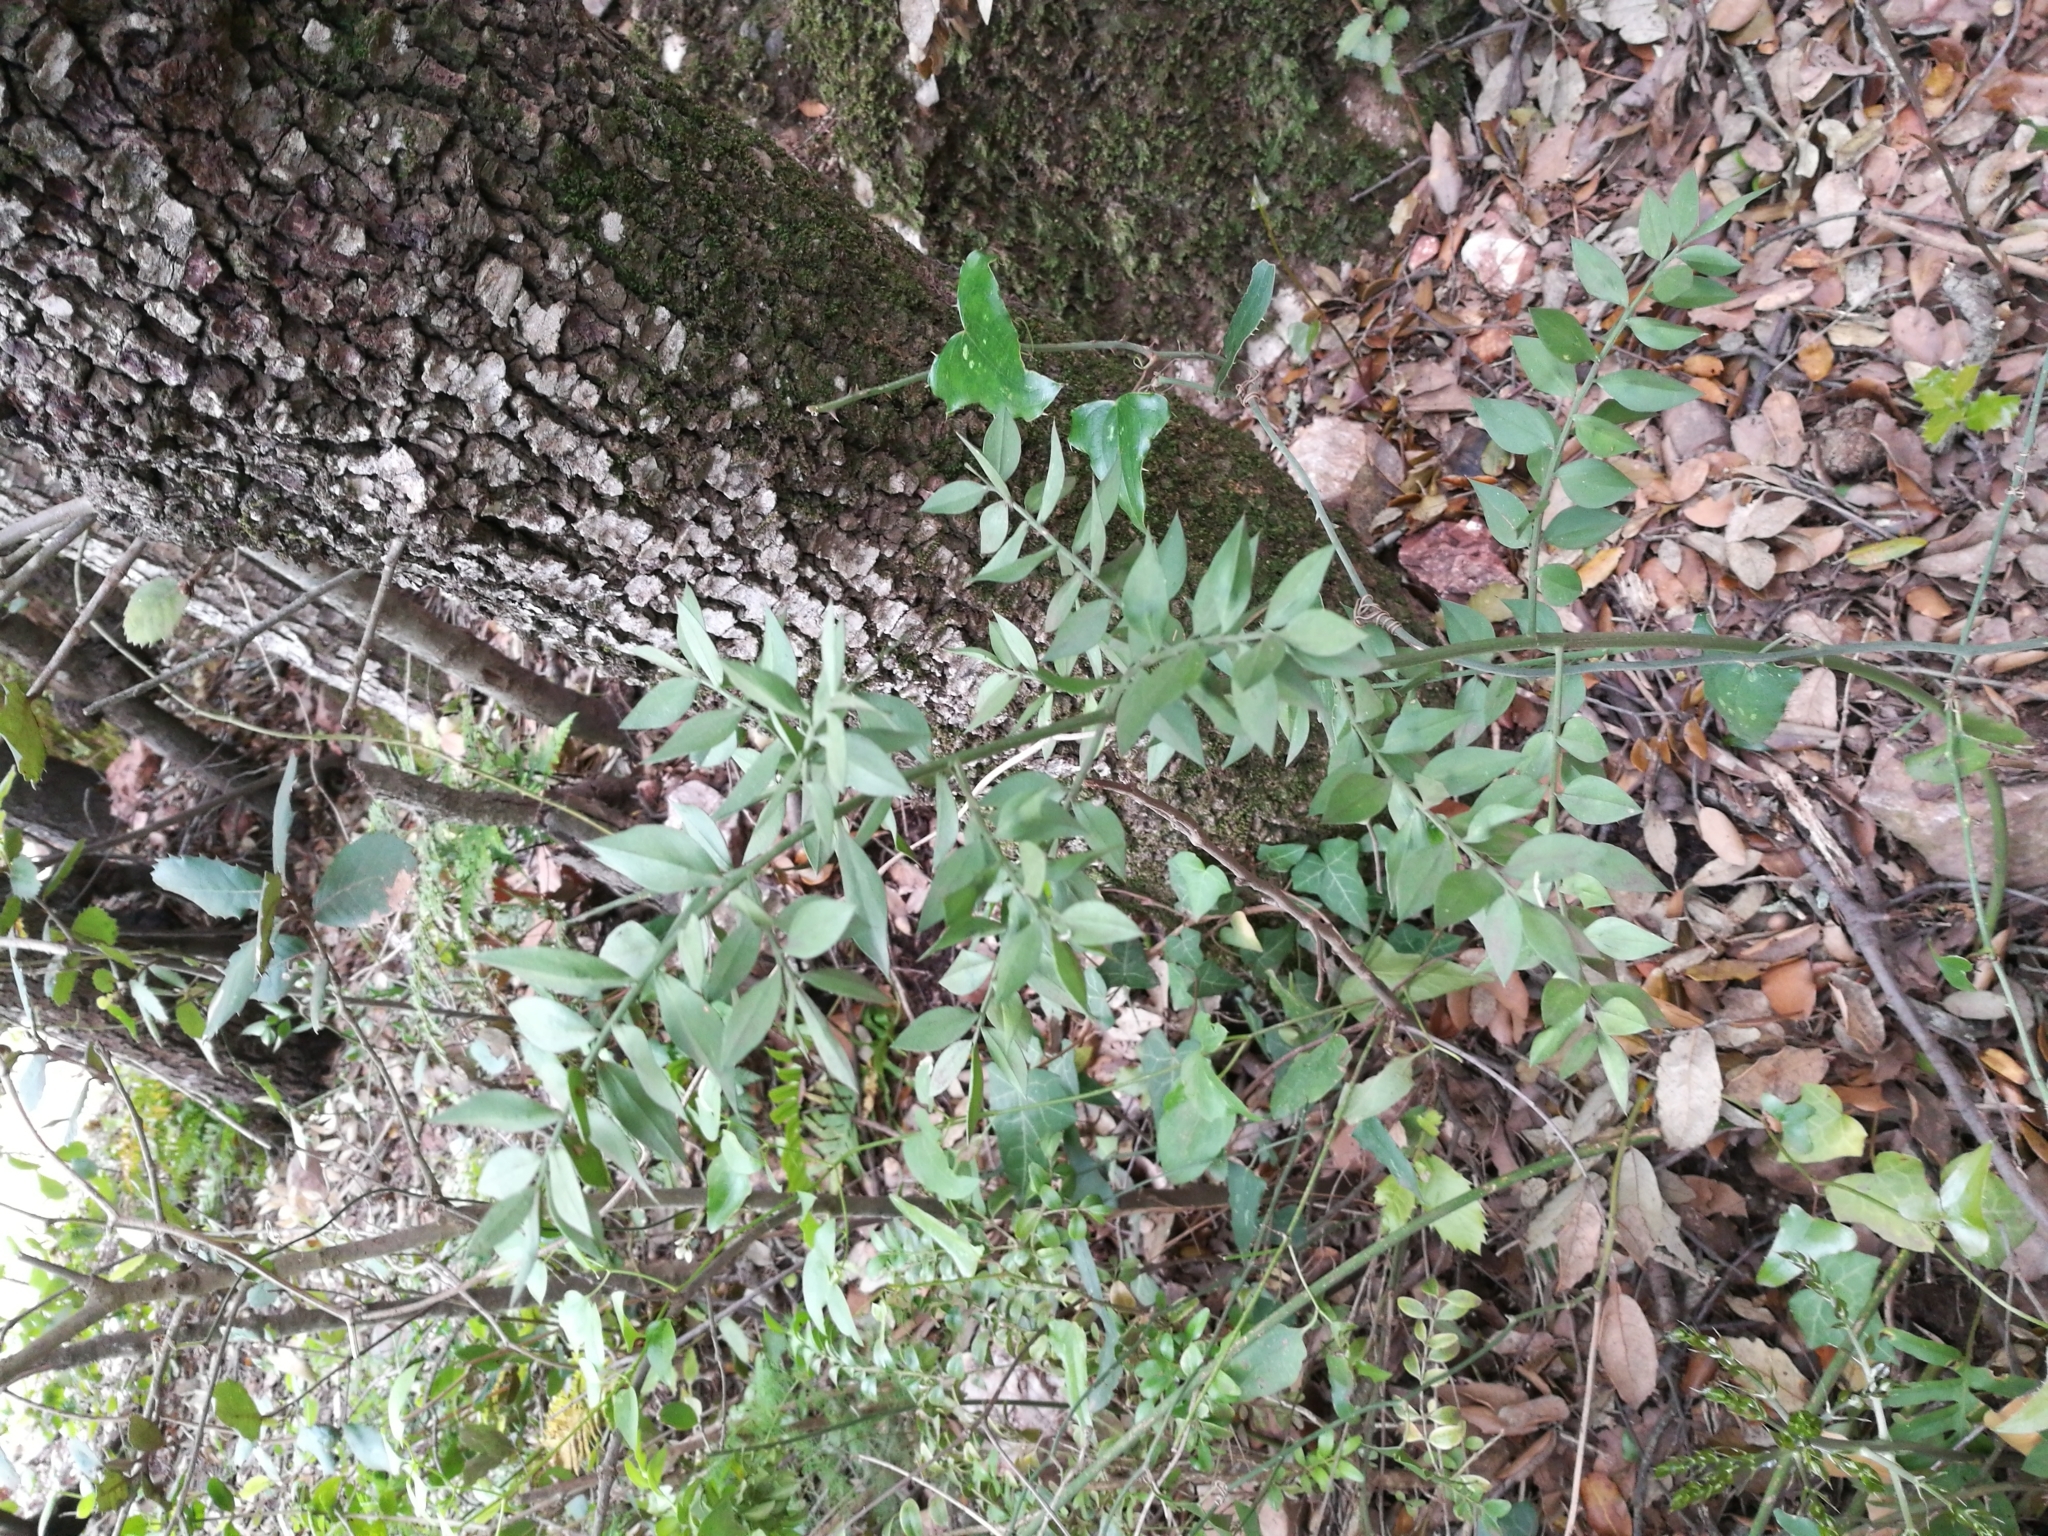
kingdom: Plantae
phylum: Tracheophyta
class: Liliopsida
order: Asparagales
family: Asparagaceae
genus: Ruscus
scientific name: Ruscus aculeatus
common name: Butcher's-broom
